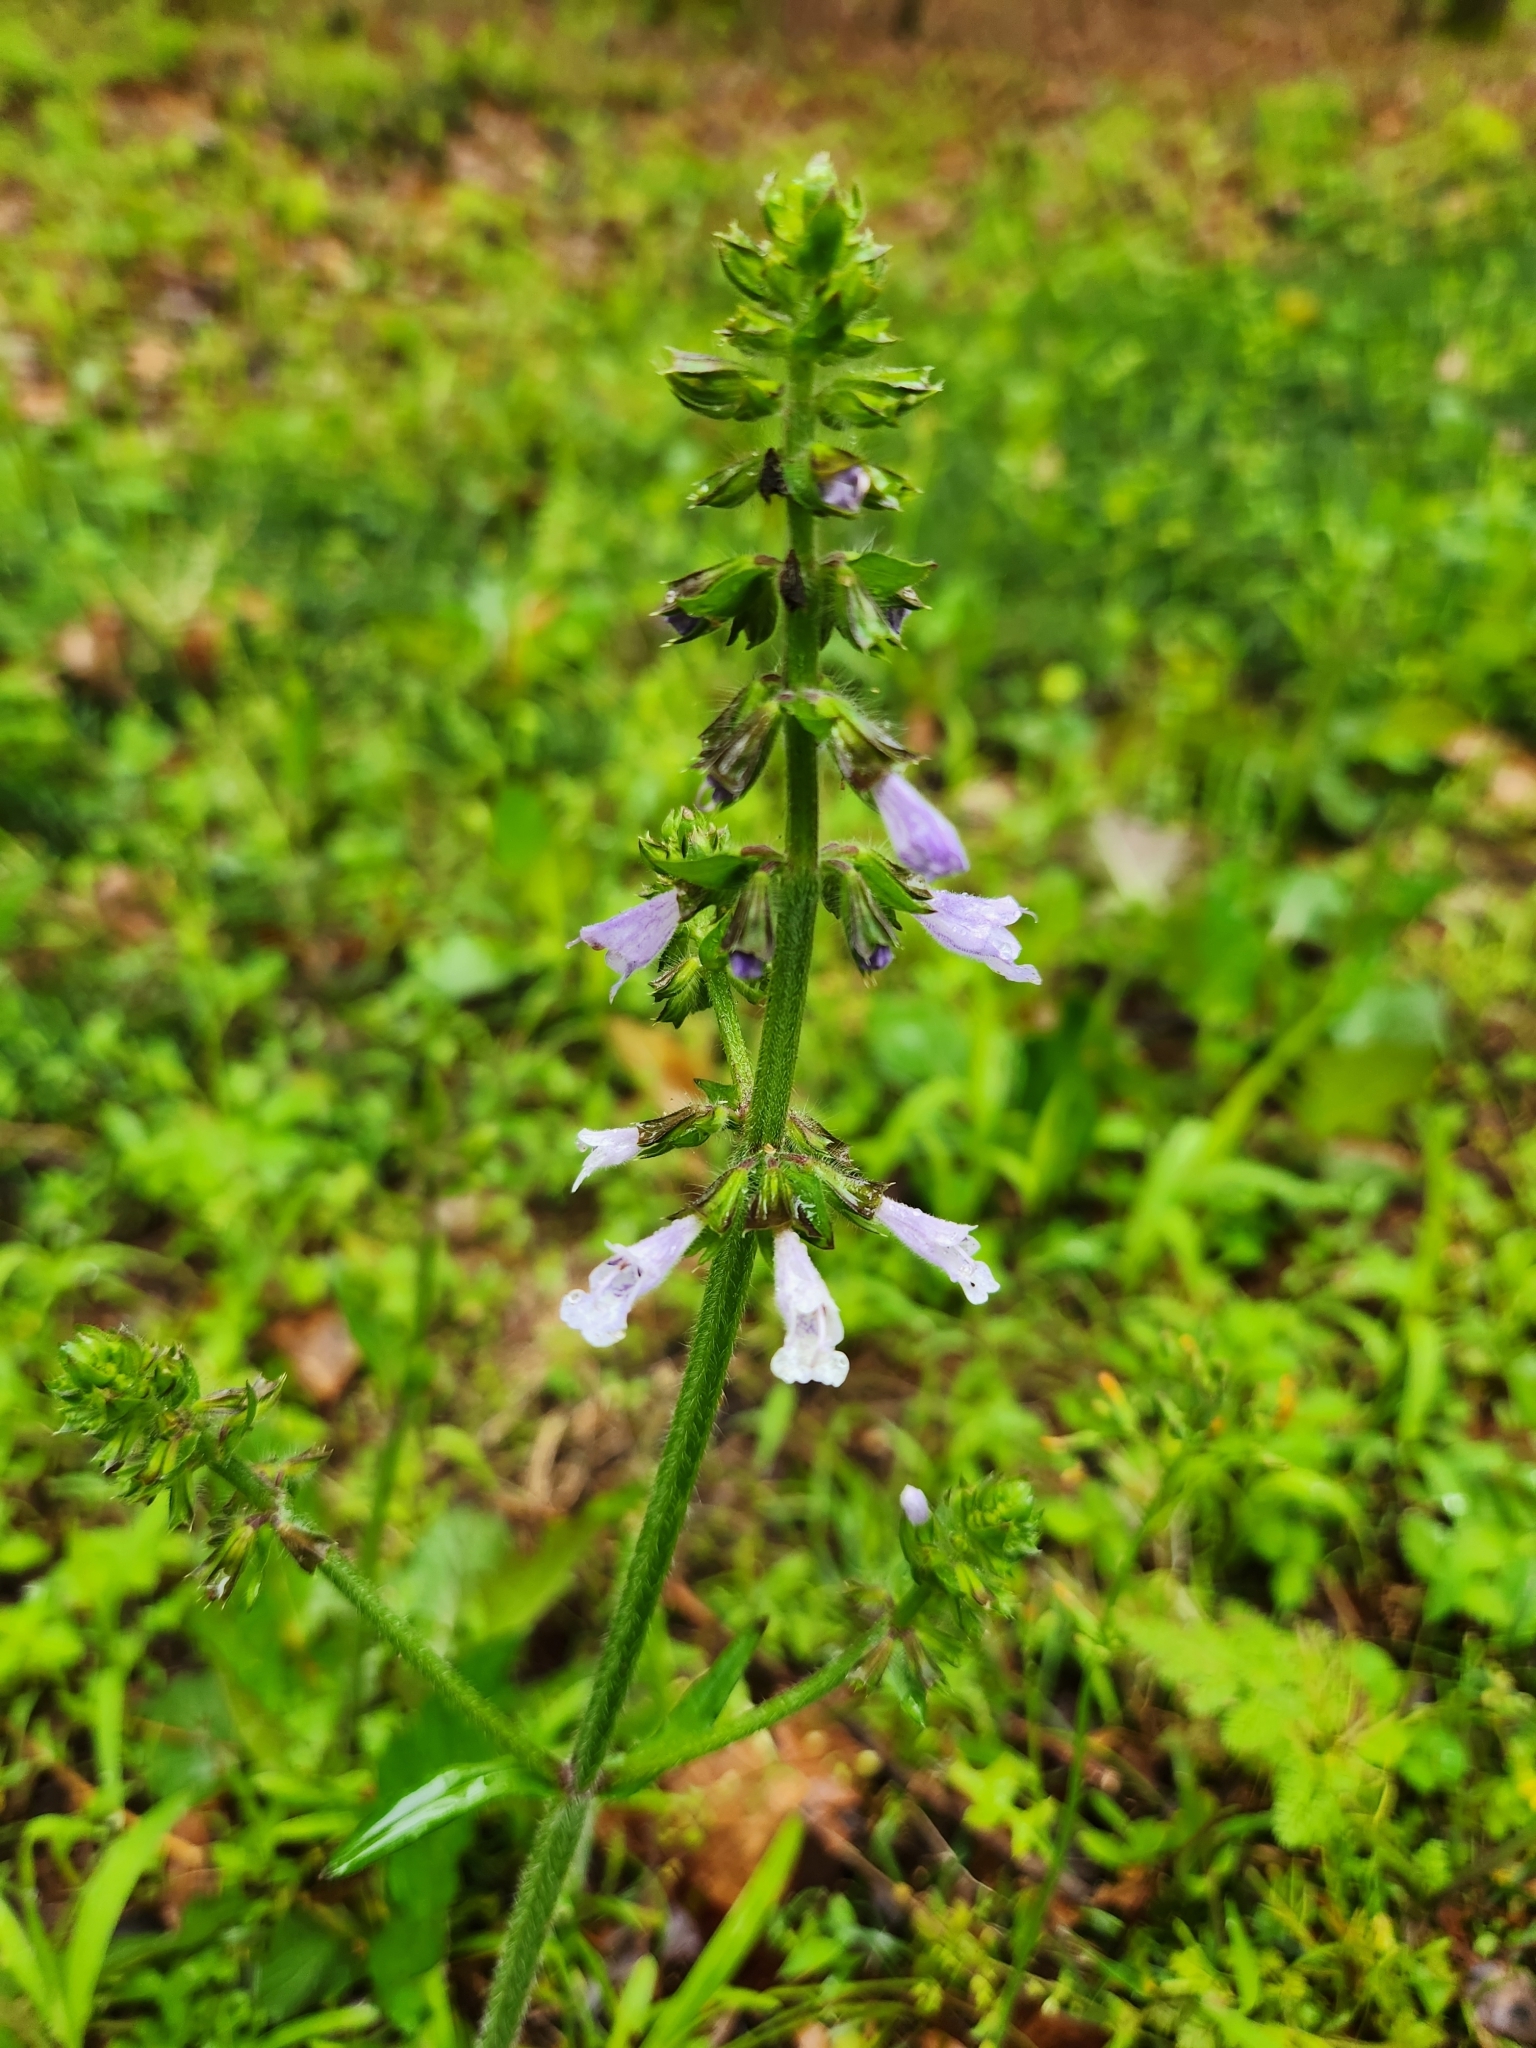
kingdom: Plantae
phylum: Tracheophyta
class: Magnoliopsida
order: Lamiales
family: Lamiaceae
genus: Salvia
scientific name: Salvia lyrata
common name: Cancerweed
